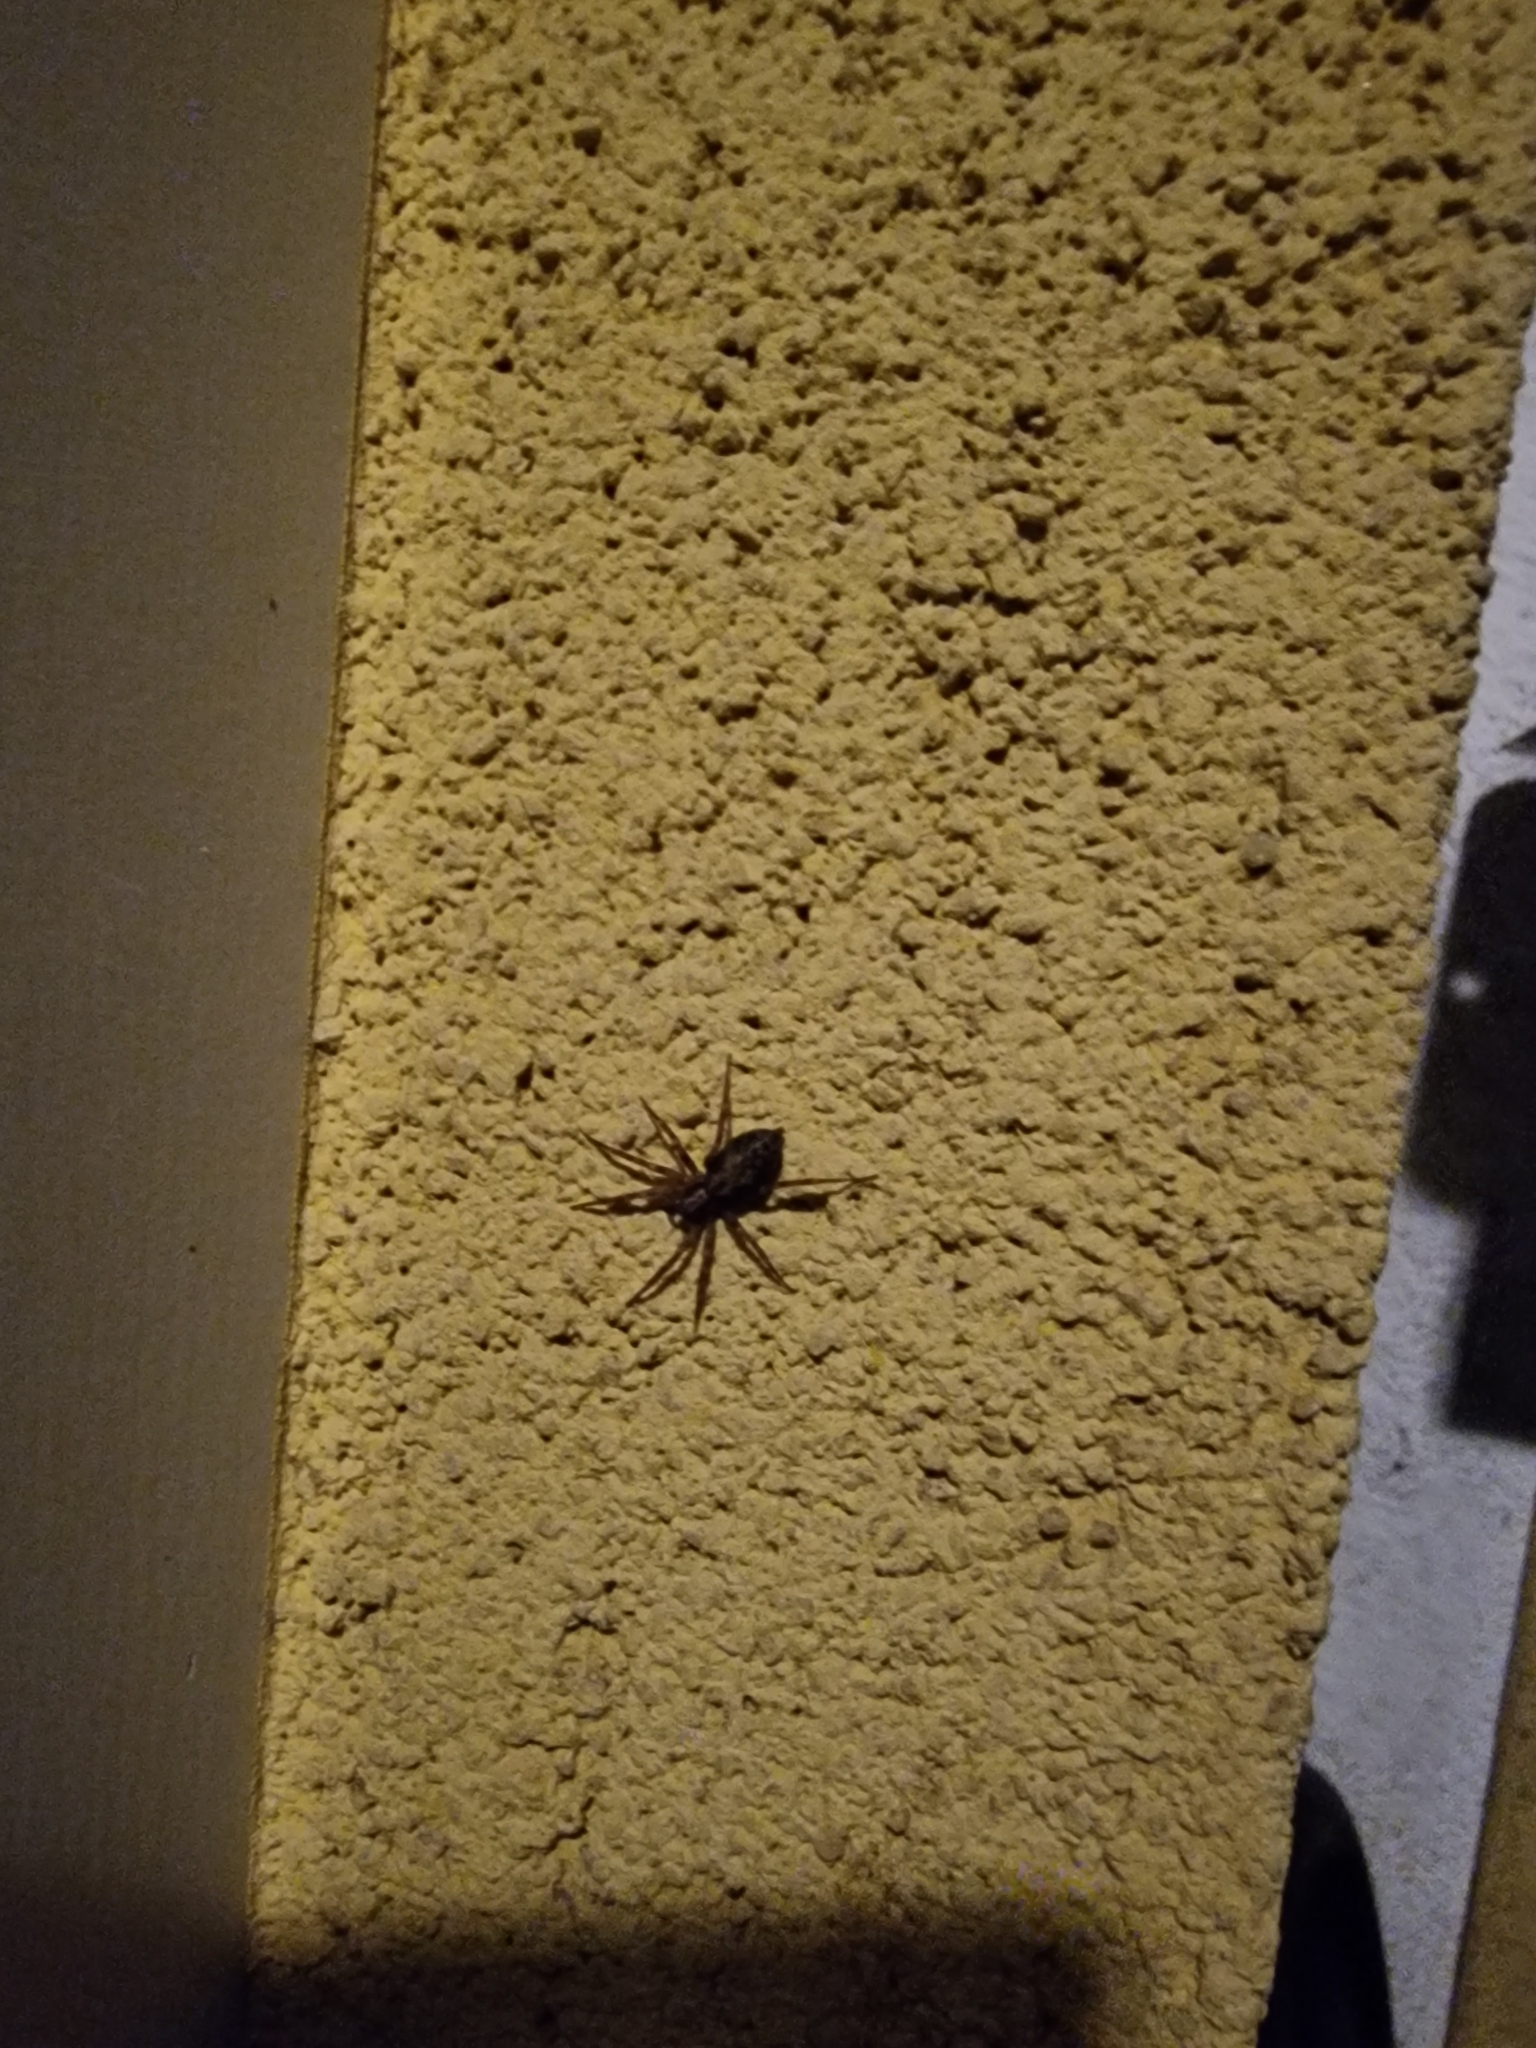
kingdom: Animalia
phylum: Arthropoda
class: Arachnida
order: Araneae
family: Liocranidae
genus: Liocranum
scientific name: Liocranum rupicola
